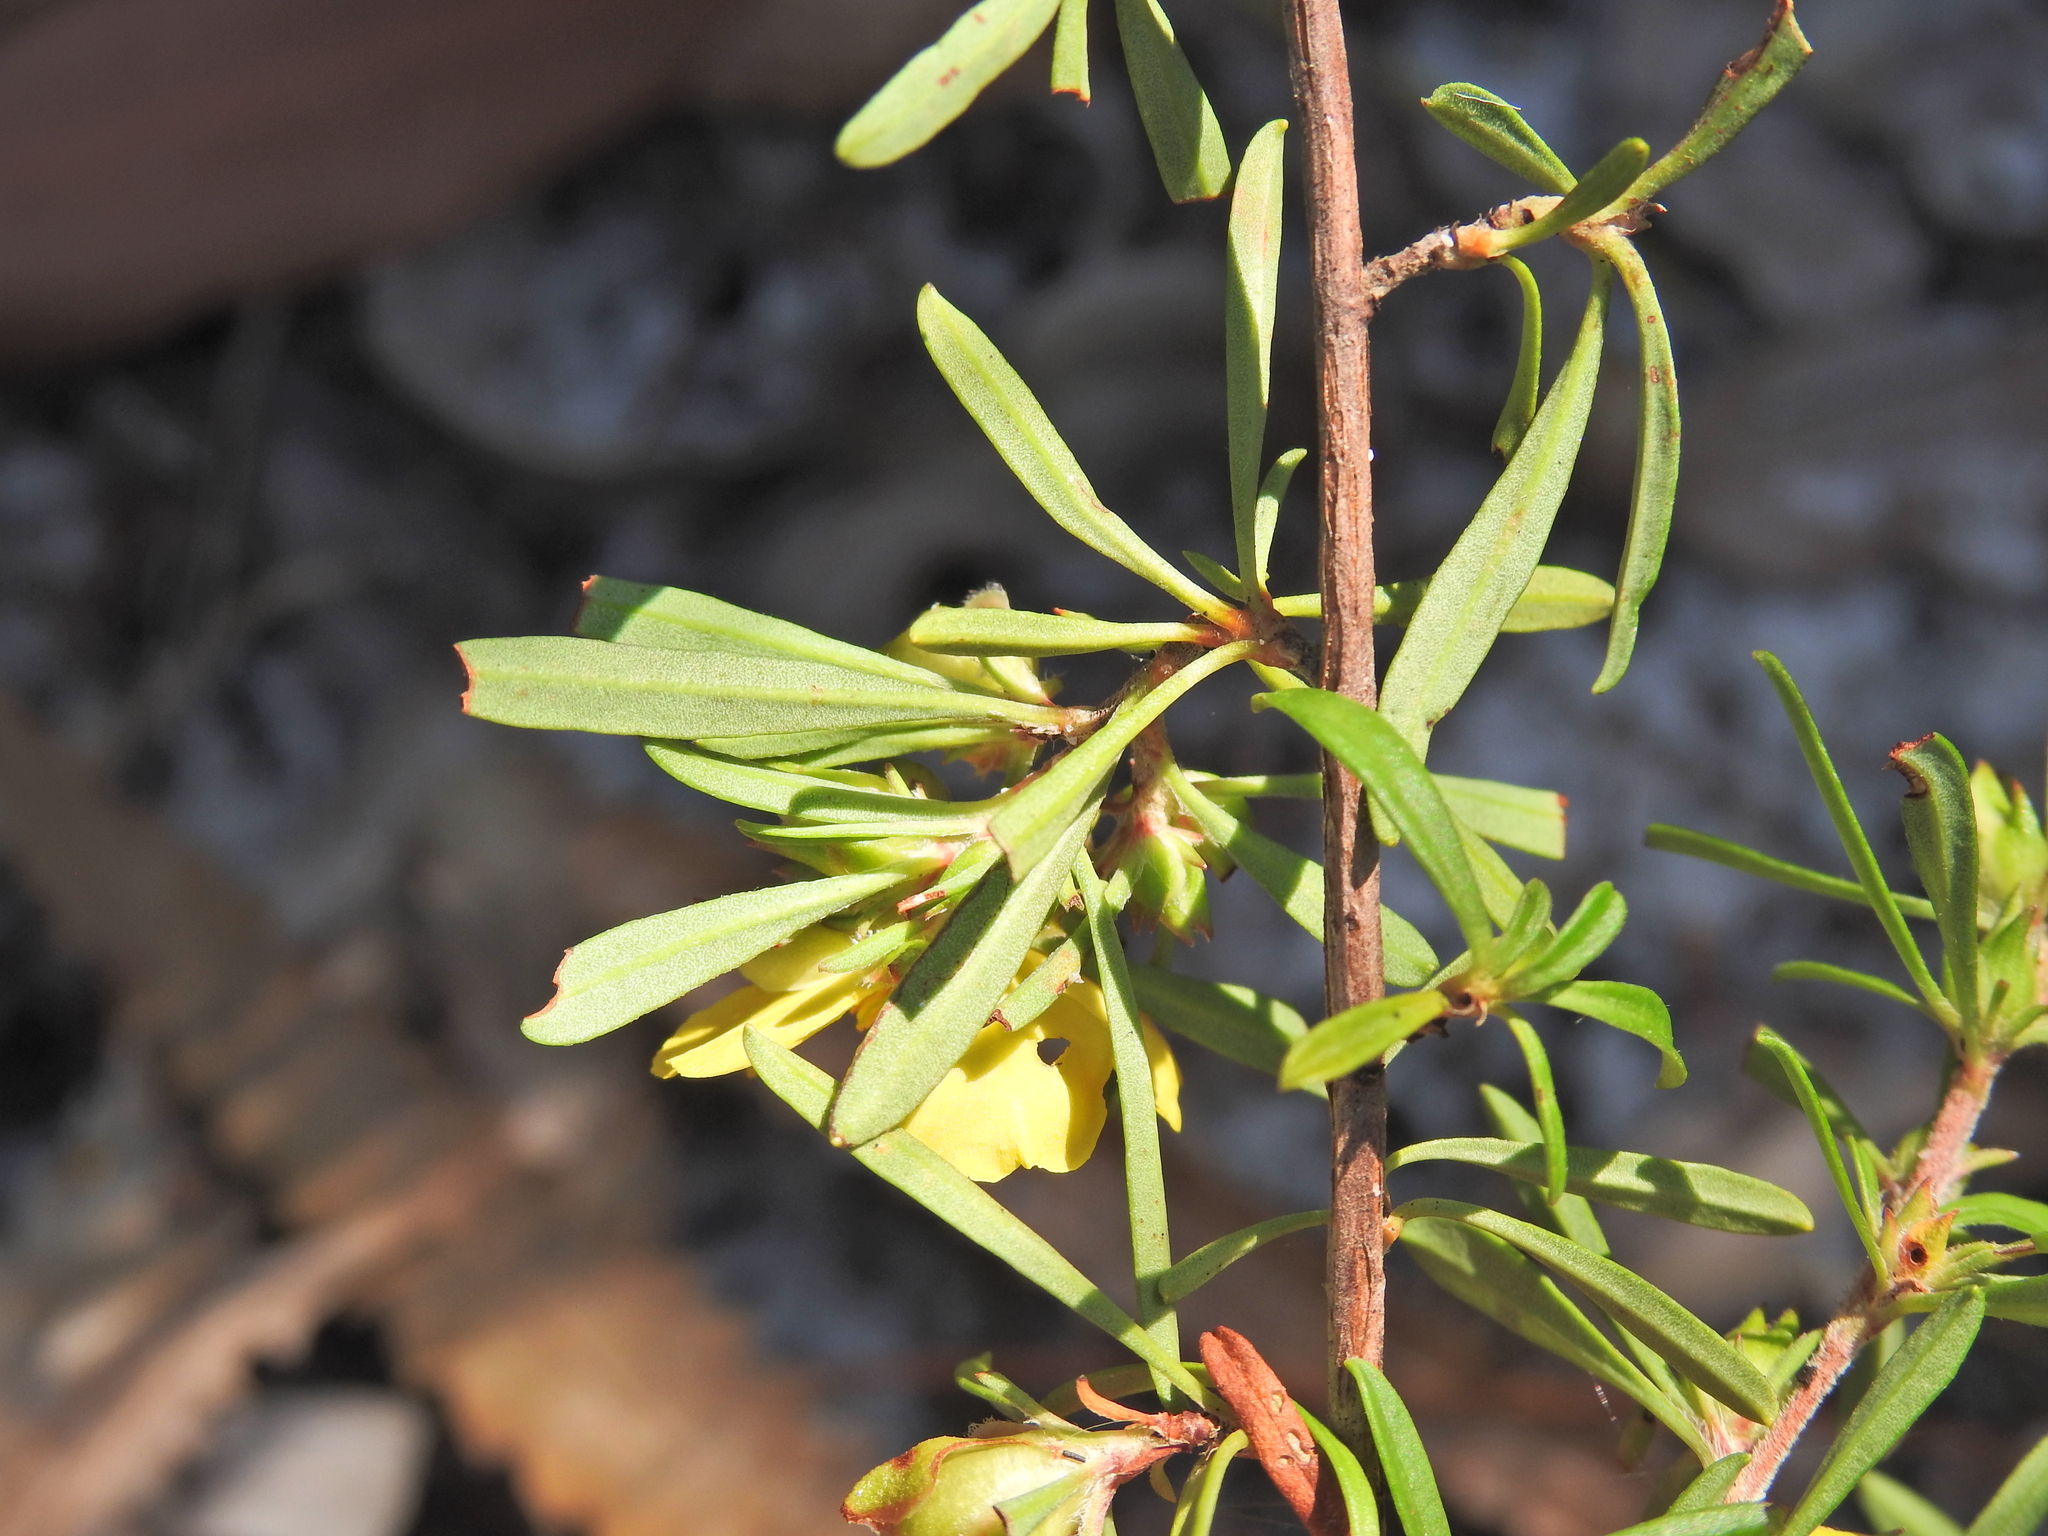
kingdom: Plantae
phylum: Tracheophyta
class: Magnoliopsida
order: Dilleniales
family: Dilleniaceae
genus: Hibbertia
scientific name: Hibbertia linearis
